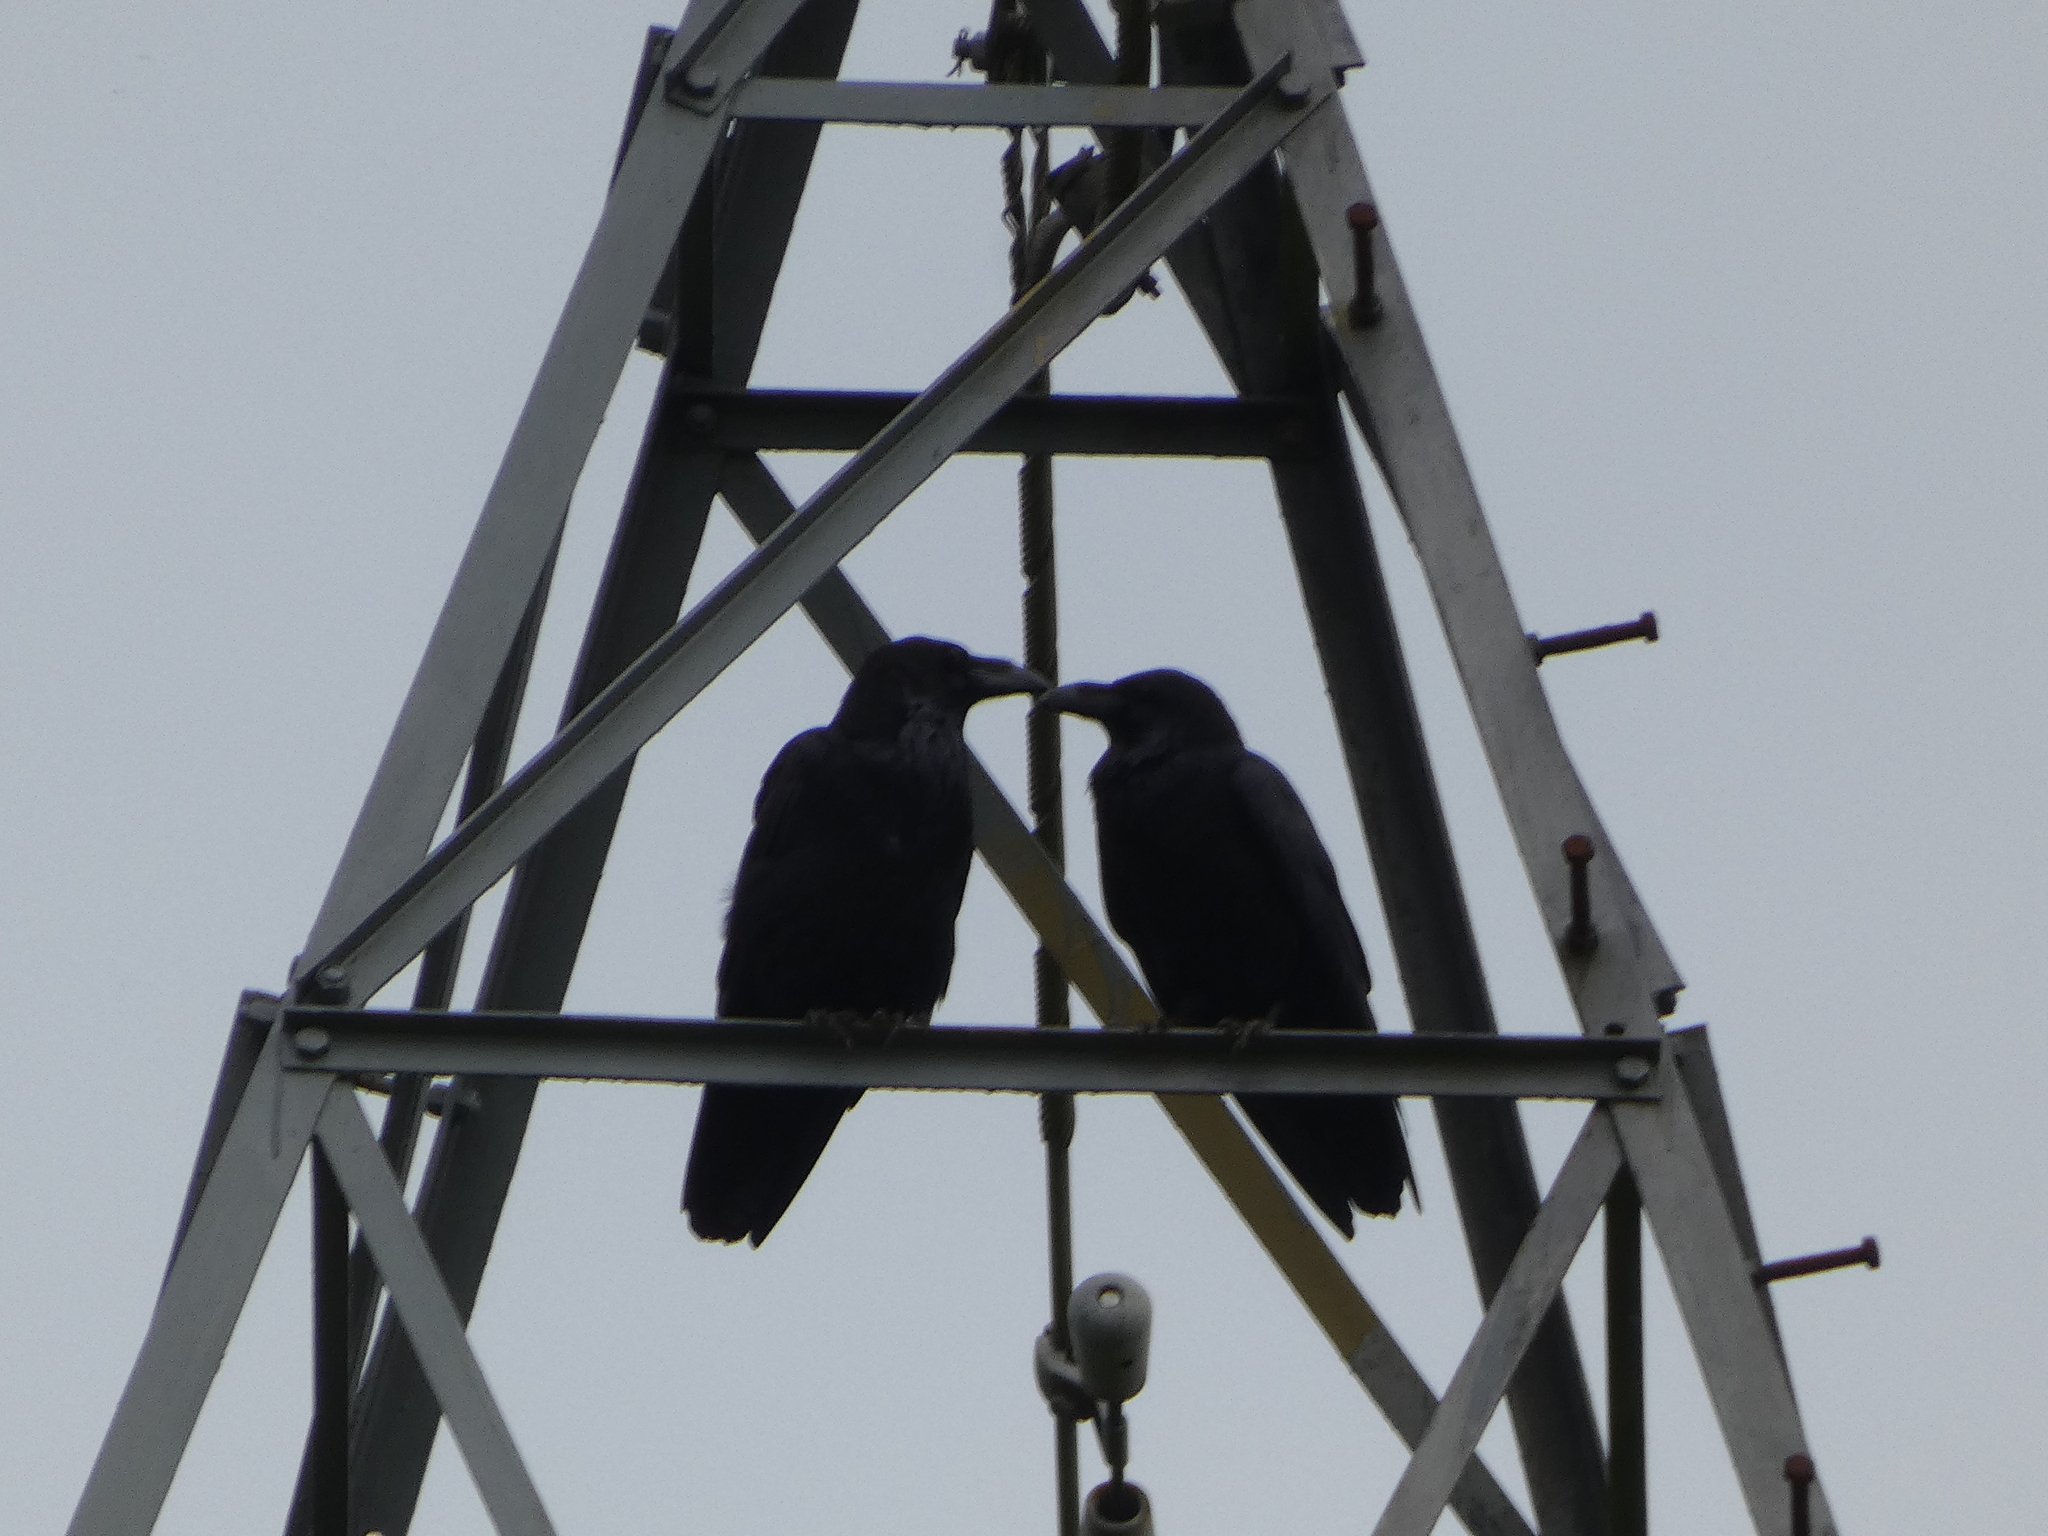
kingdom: Animalia
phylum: Chordata
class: Aves
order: Passeriformes
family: Corvidae
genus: Corvus
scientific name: Corvus corax
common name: Common raven
